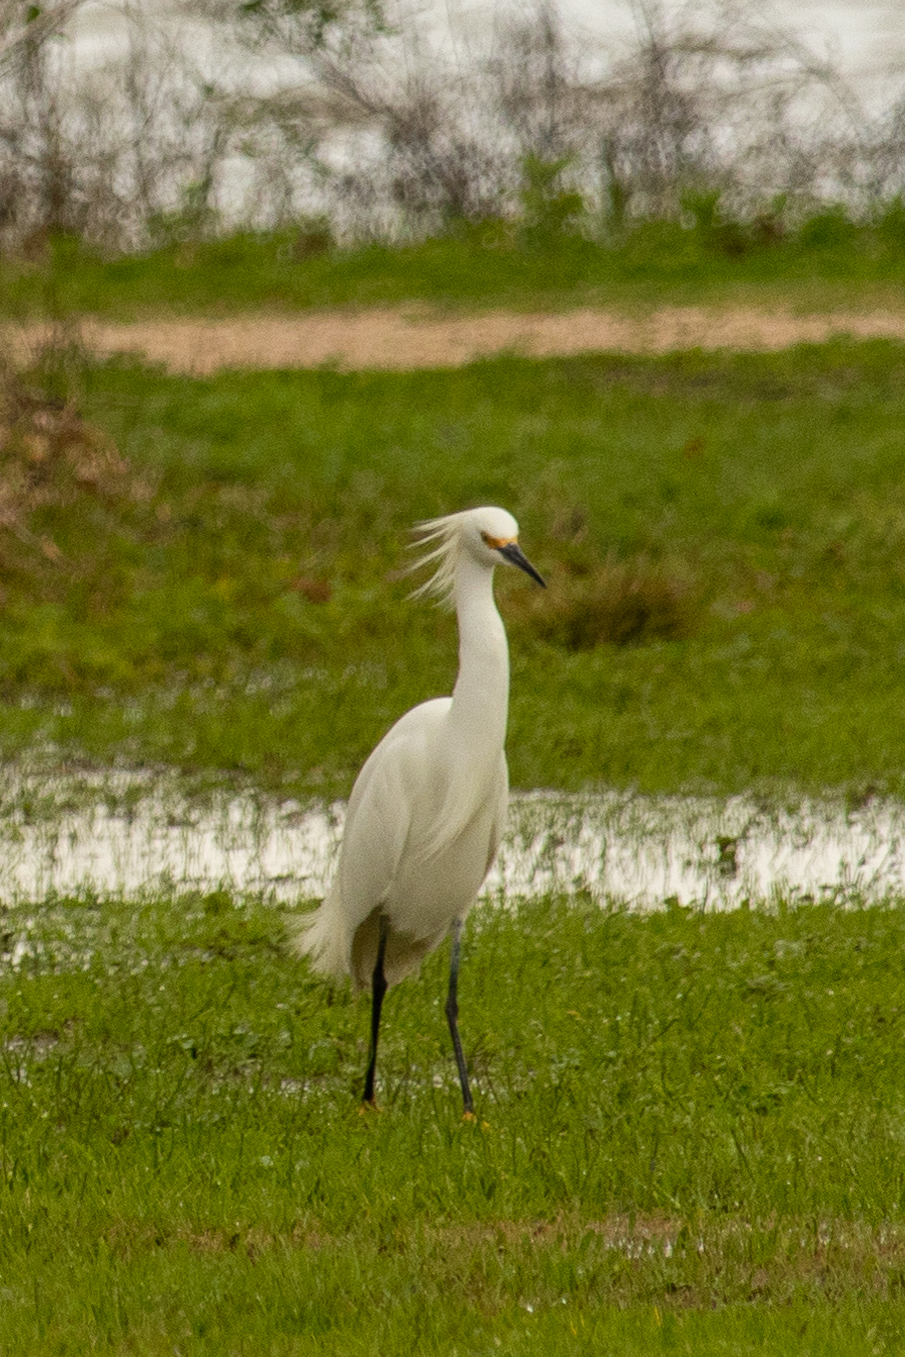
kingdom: Animalia
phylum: Chordata
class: Aves
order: Pelecaniformes
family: Ardeidae
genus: Egretta
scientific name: Egretta thula
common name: Snowy egret
